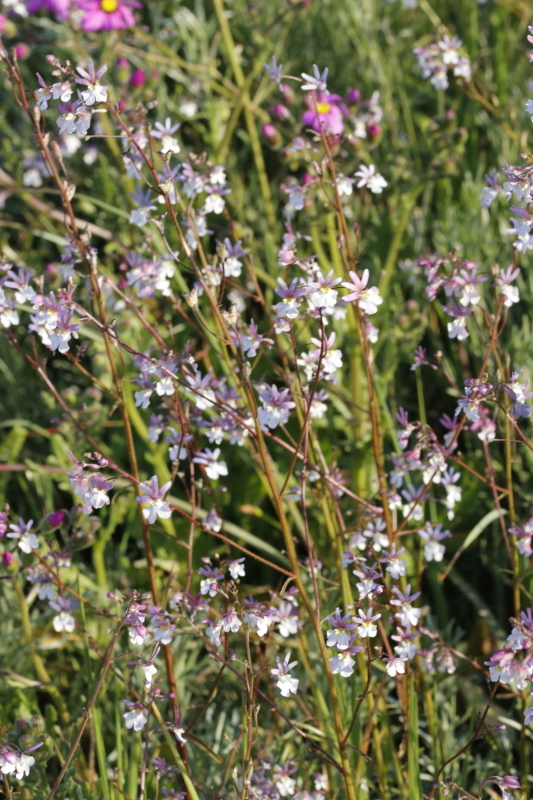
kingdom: Plantae
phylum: Tracheophyta
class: Magnoliopsida
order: Lamiales
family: Scrophulariaceae
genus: Nemesia
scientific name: Nemesia bicornis
